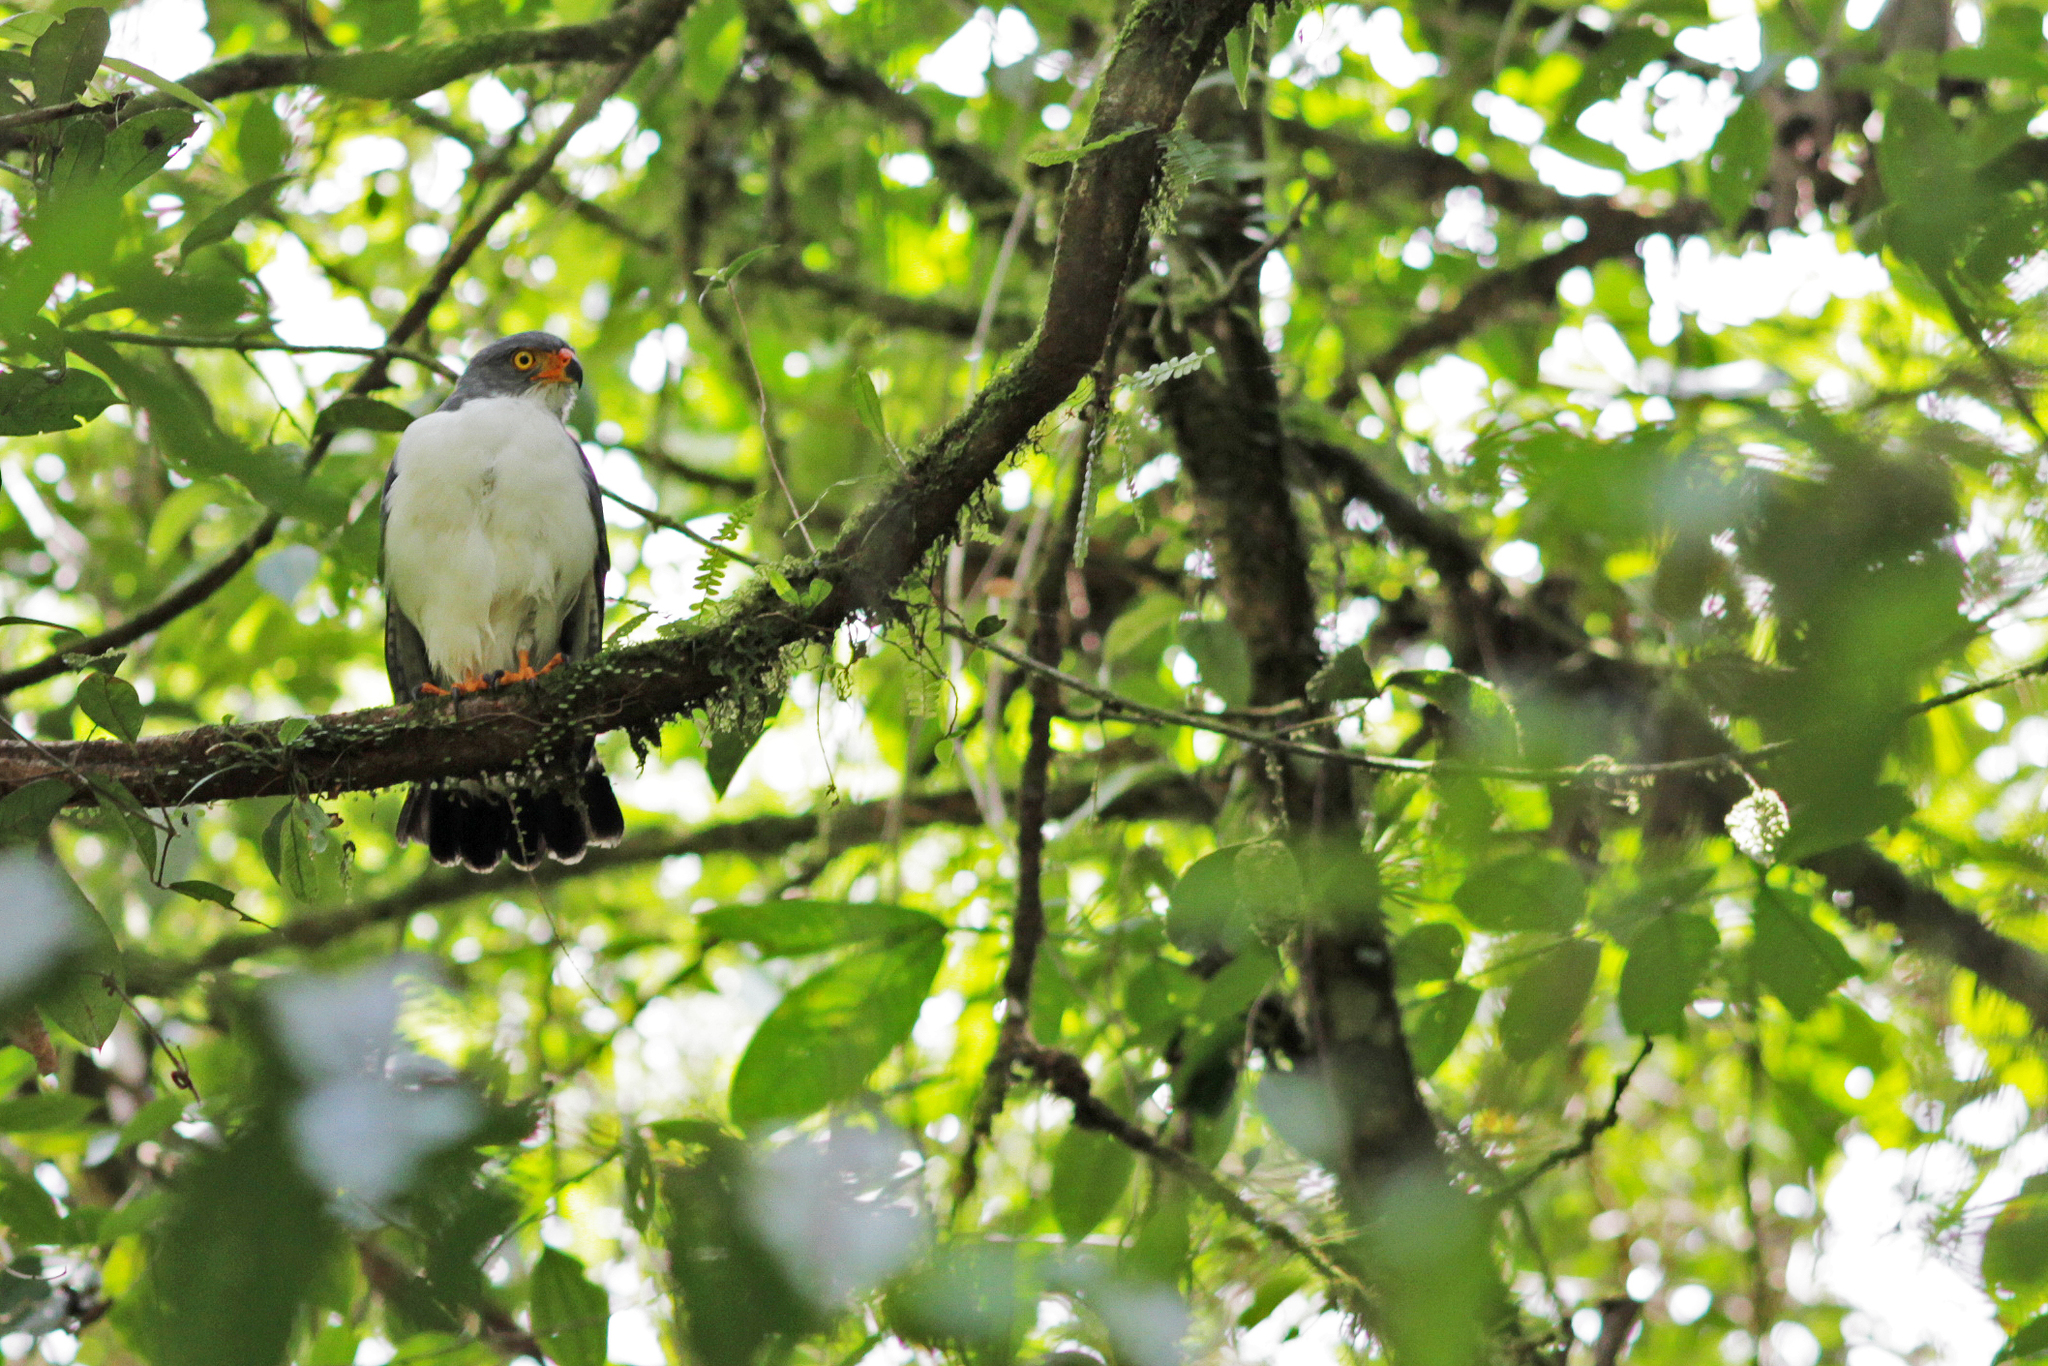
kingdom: Animalia
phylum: Chordata
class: Aves
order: Accipitriformes
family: Accipitridae
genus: Leucopternis
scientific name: Leucopternis semiplumbeus
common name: Semiplumbeous hawk
